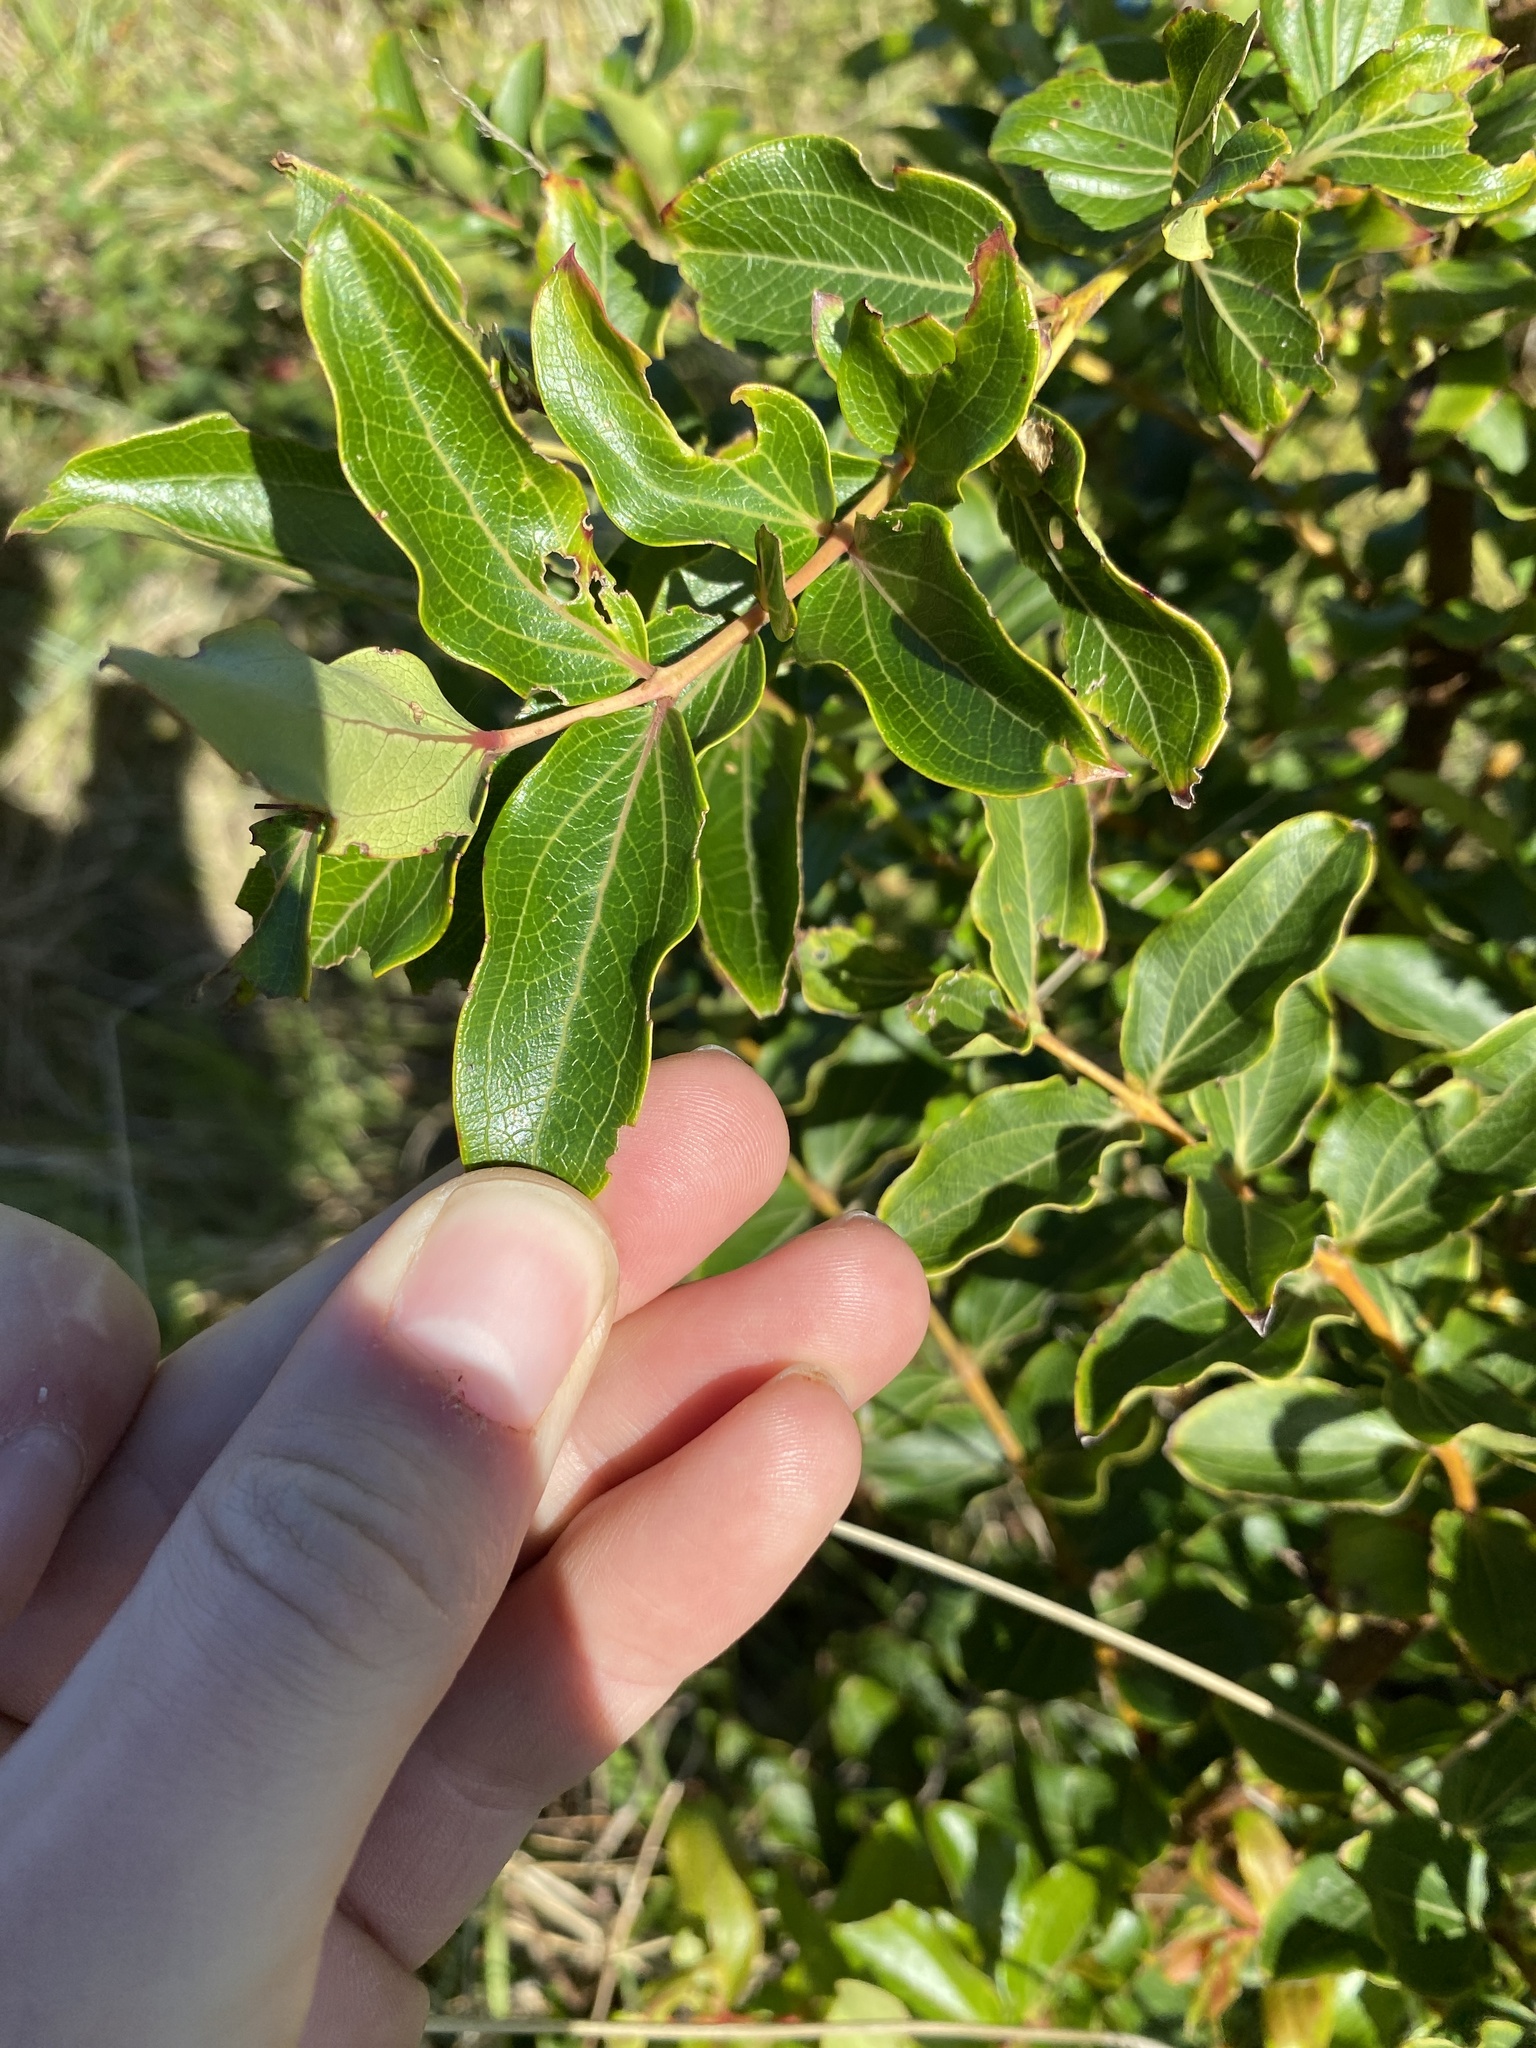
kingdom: Plantae
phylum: Tracheophyta
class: Magnoliopsida
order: Cucurbitales
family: Coriariaceae
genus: Coriaria
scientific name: Coriaria arborea
